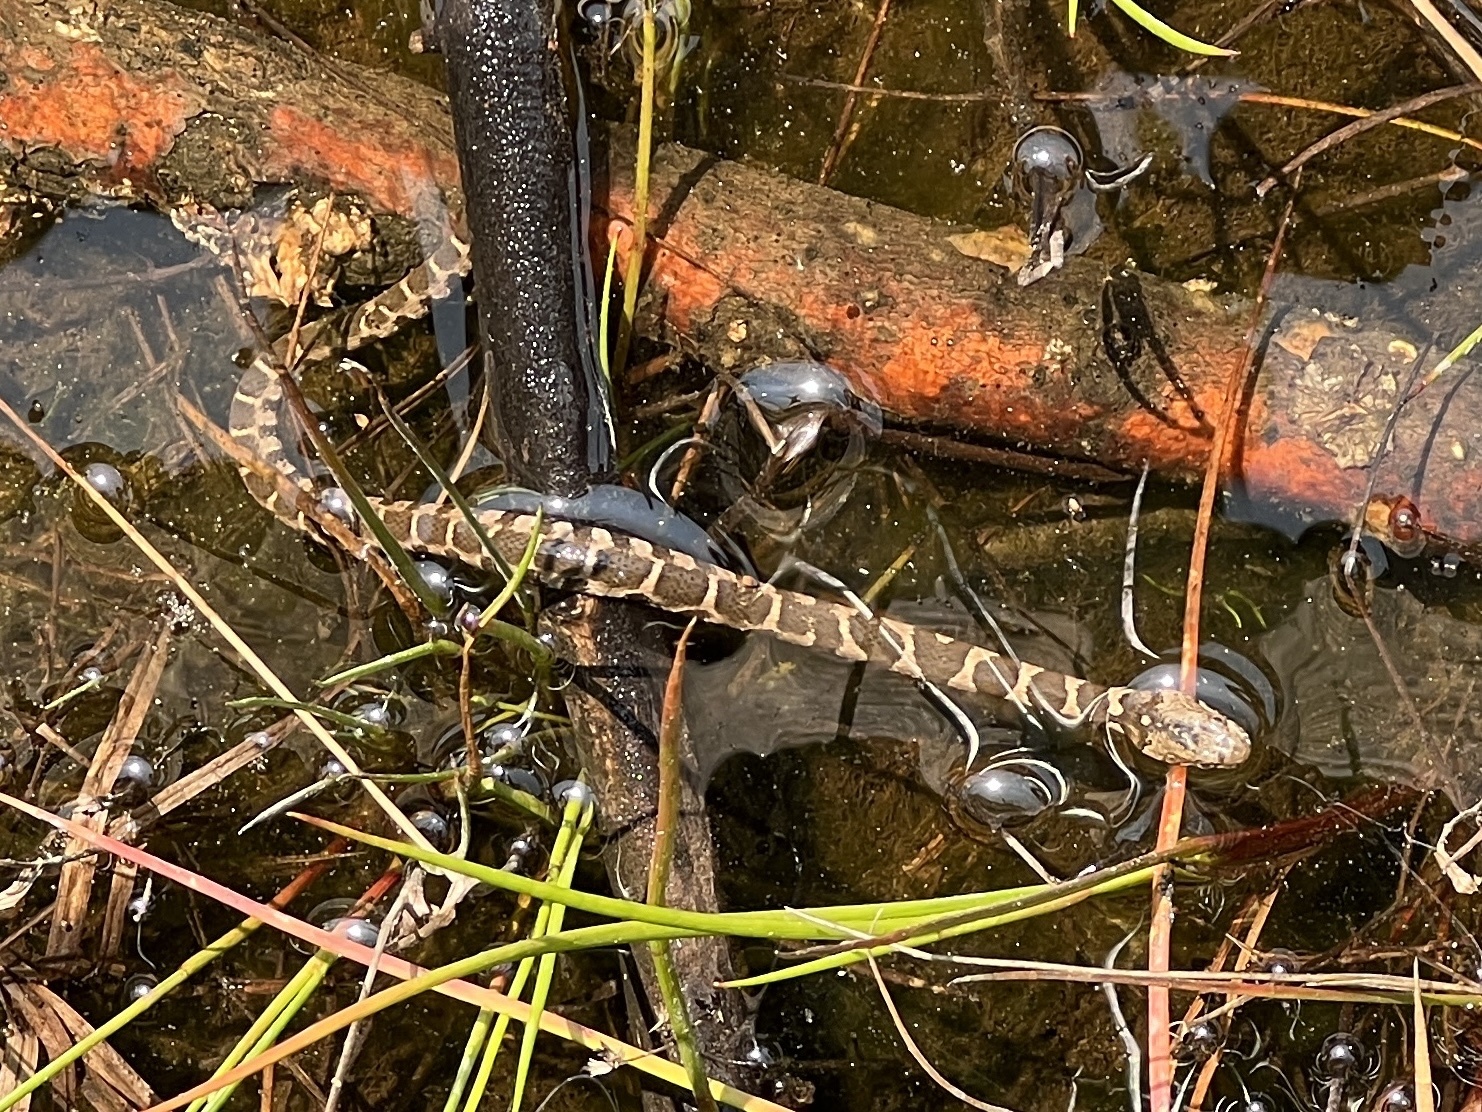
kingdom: Animalia
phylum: Chordata
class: Squamata
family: Colubridae
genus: Nerodia
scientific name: Nerodia sipedon
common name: Northern water snake
